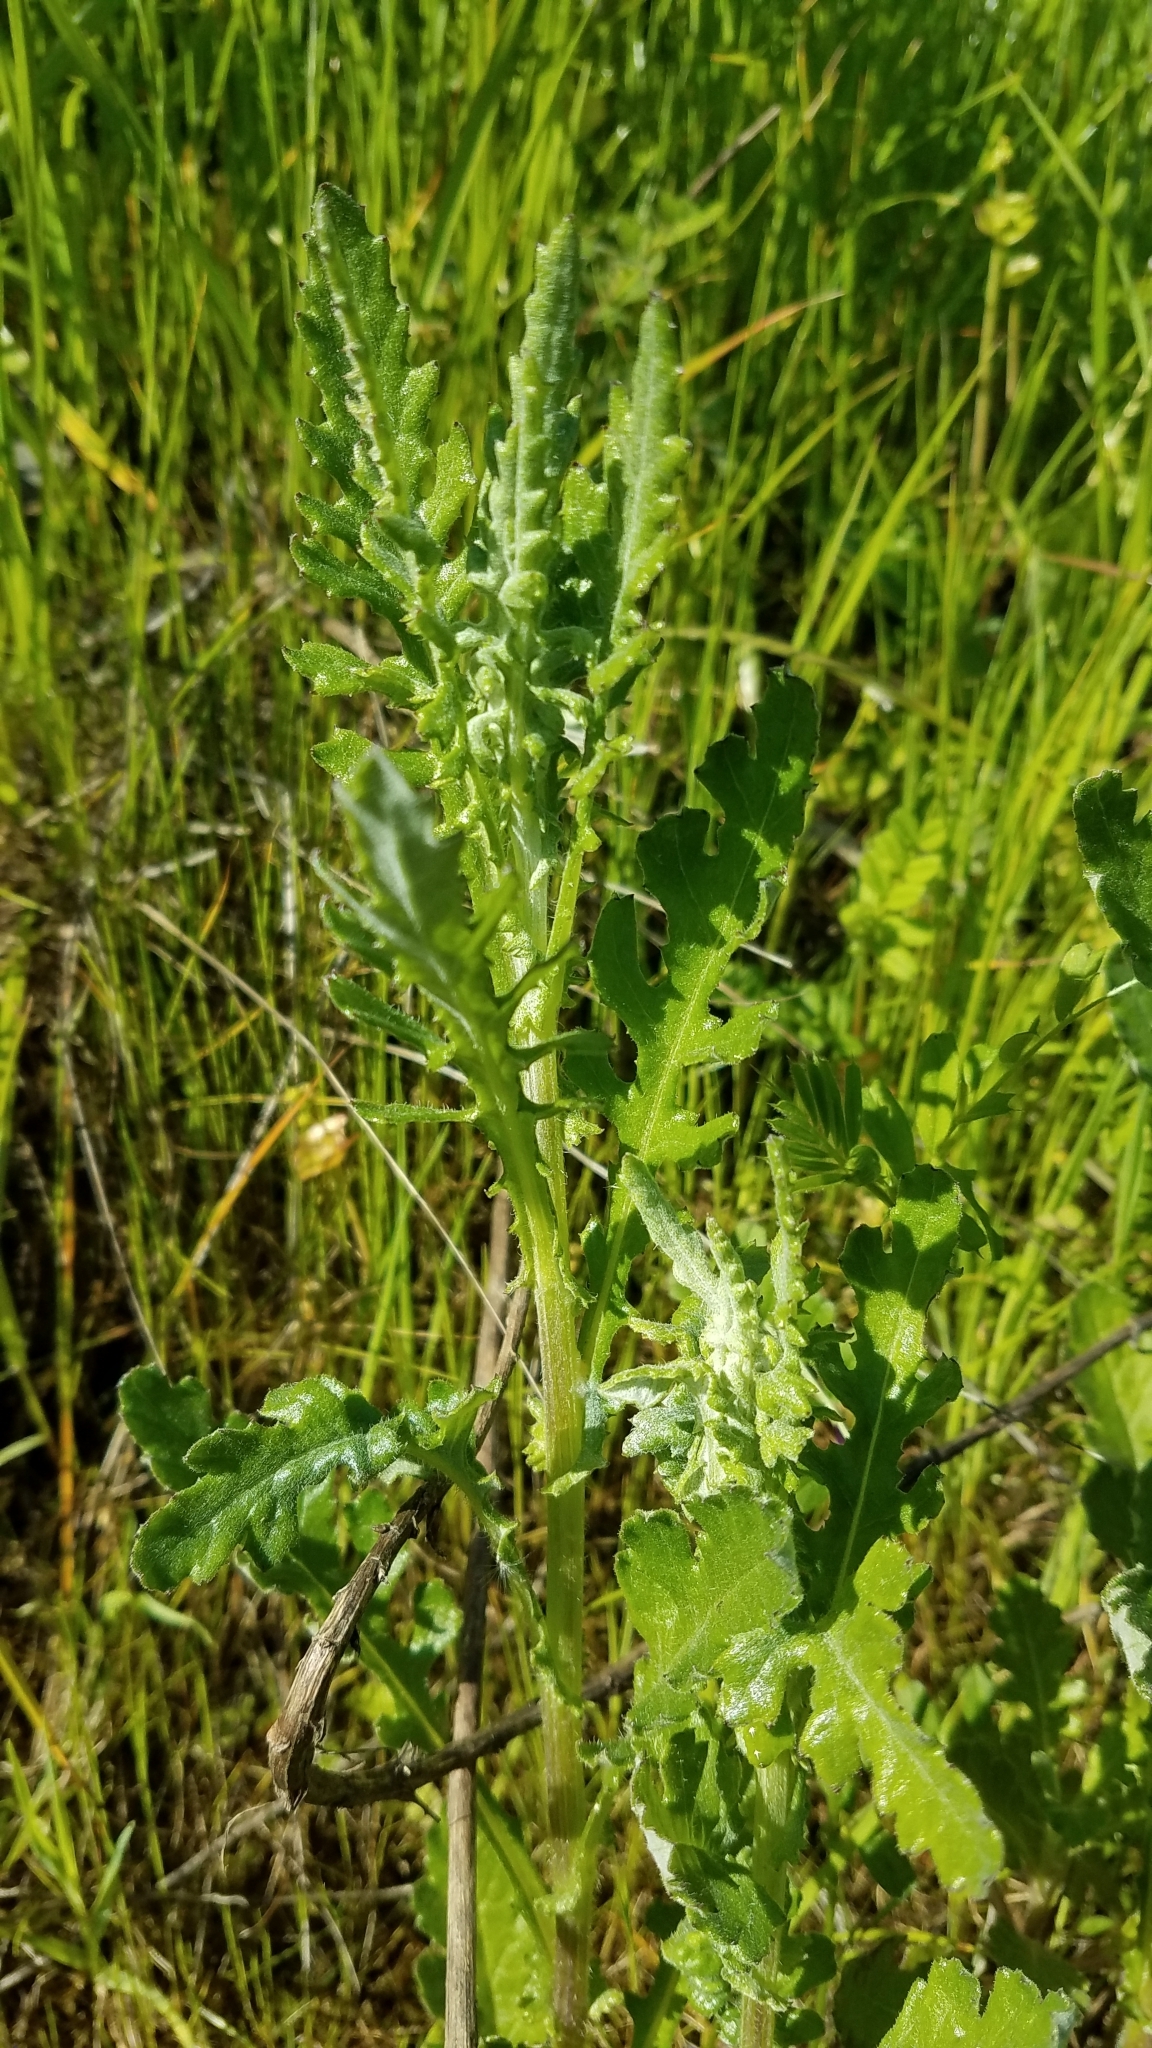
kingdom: Plantae
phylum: Tracheophyta
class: Magnoliopsida
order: Asterales
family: Asteraceae
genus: Senecio
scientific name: Senecio glomeratus
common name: Cutleaf burnweed
